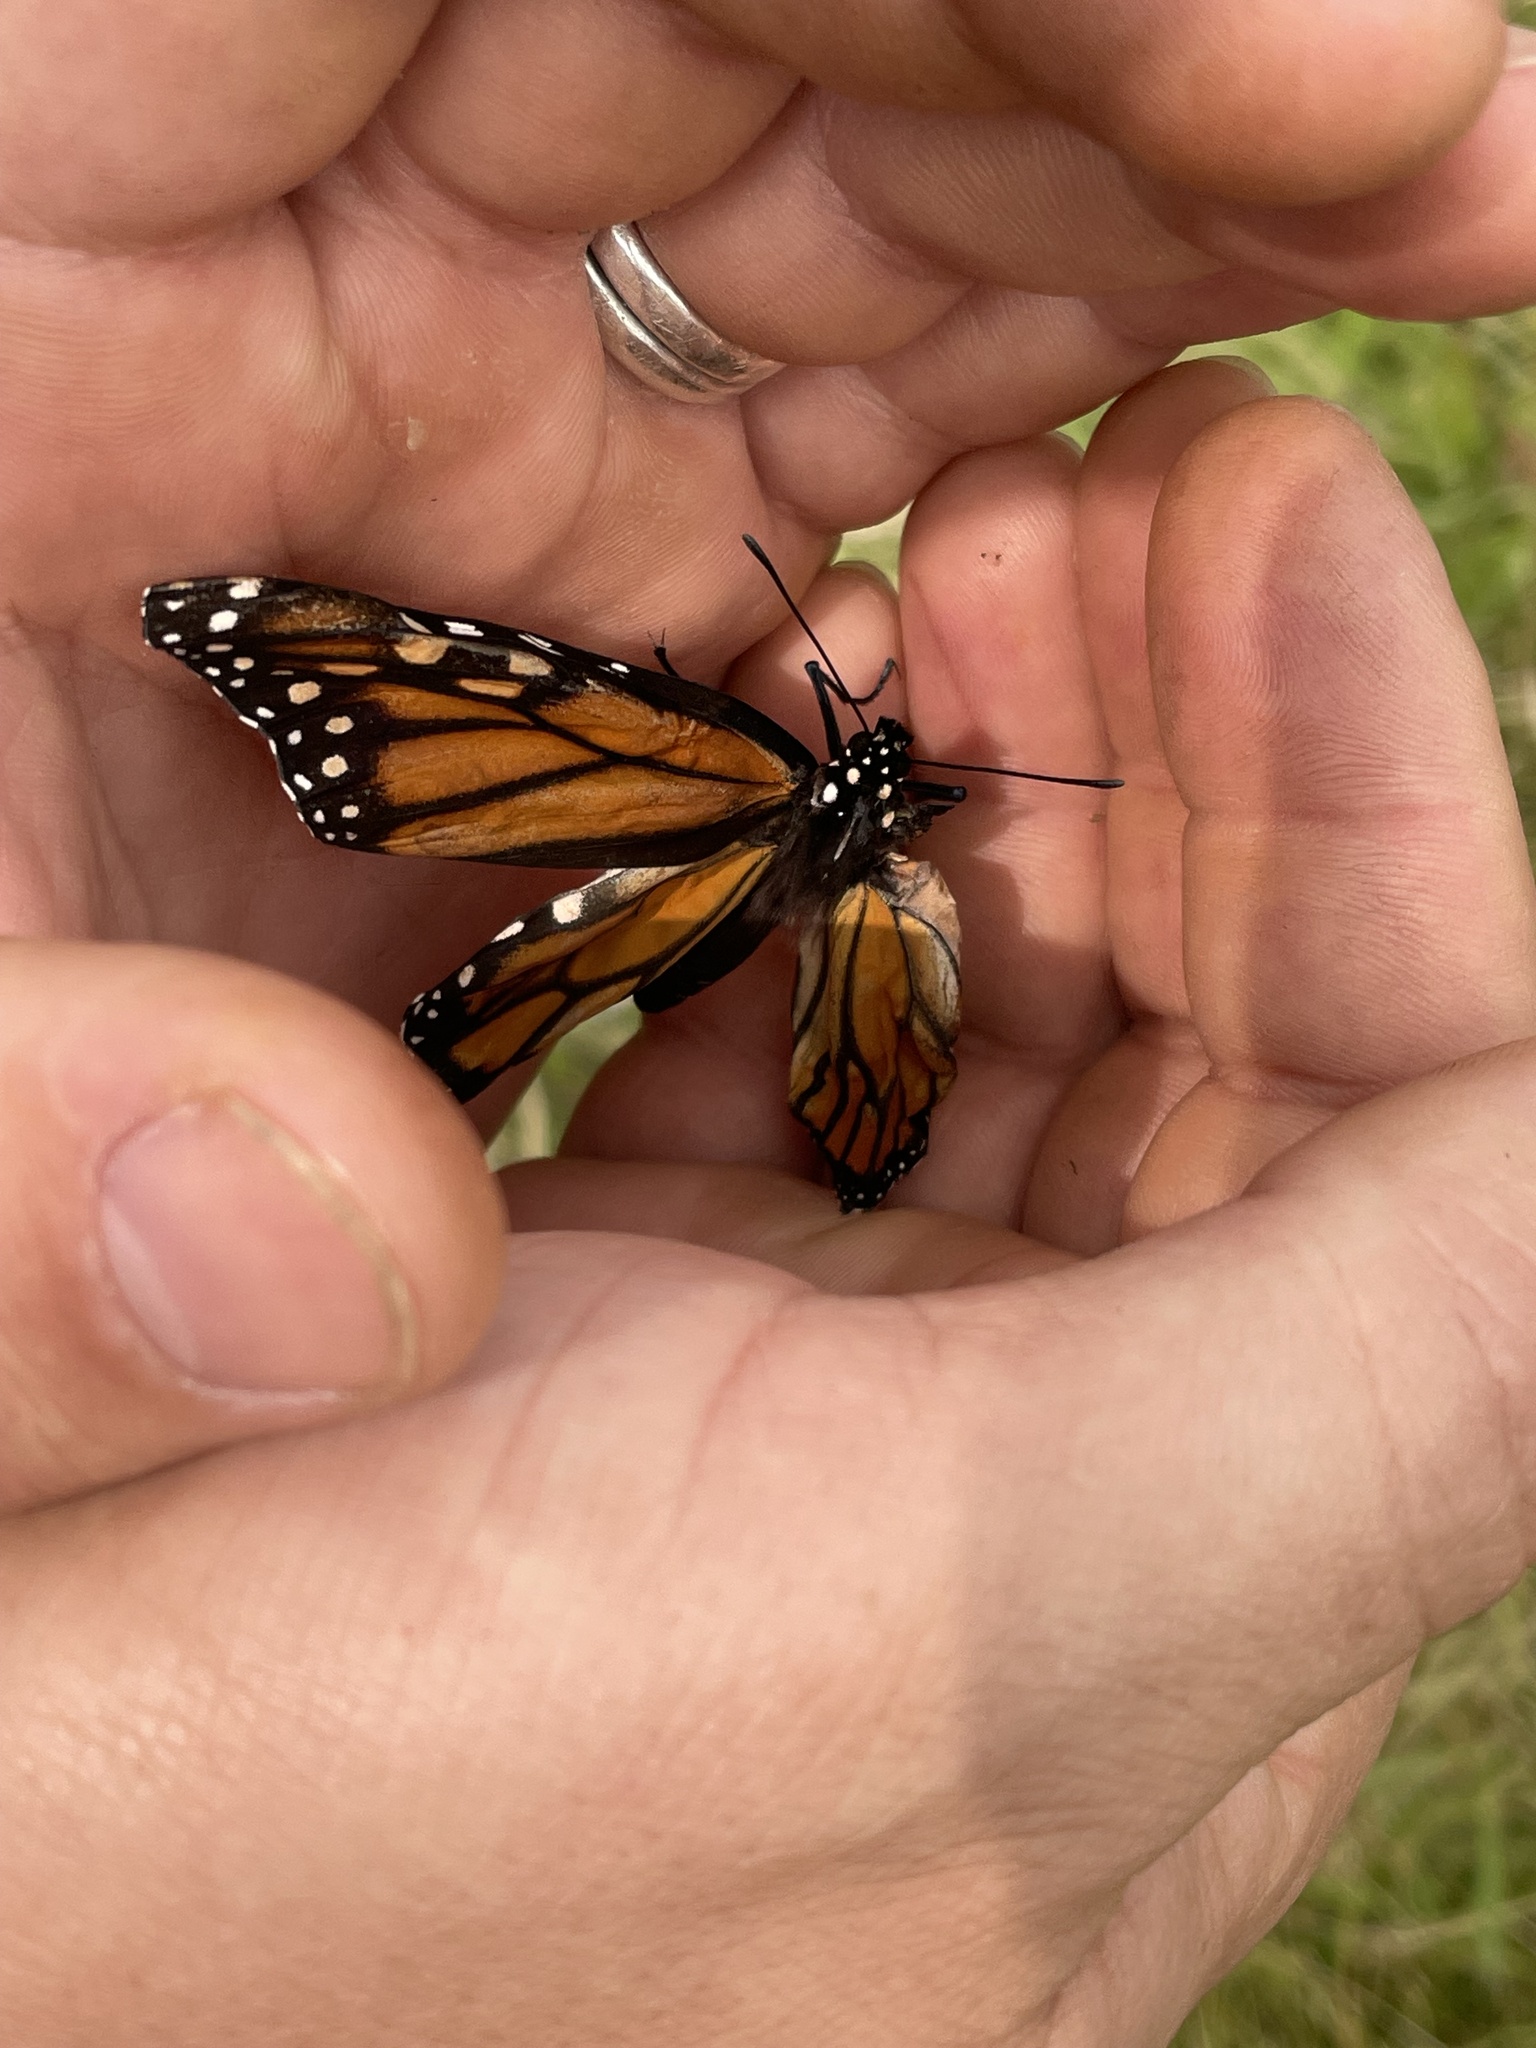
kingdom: Animalia
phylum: Arthropoda
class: Insecta
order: Lepidoptera
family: Nymphalidae
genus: Danaus
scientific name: Danaus plexippus
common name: Monarch
